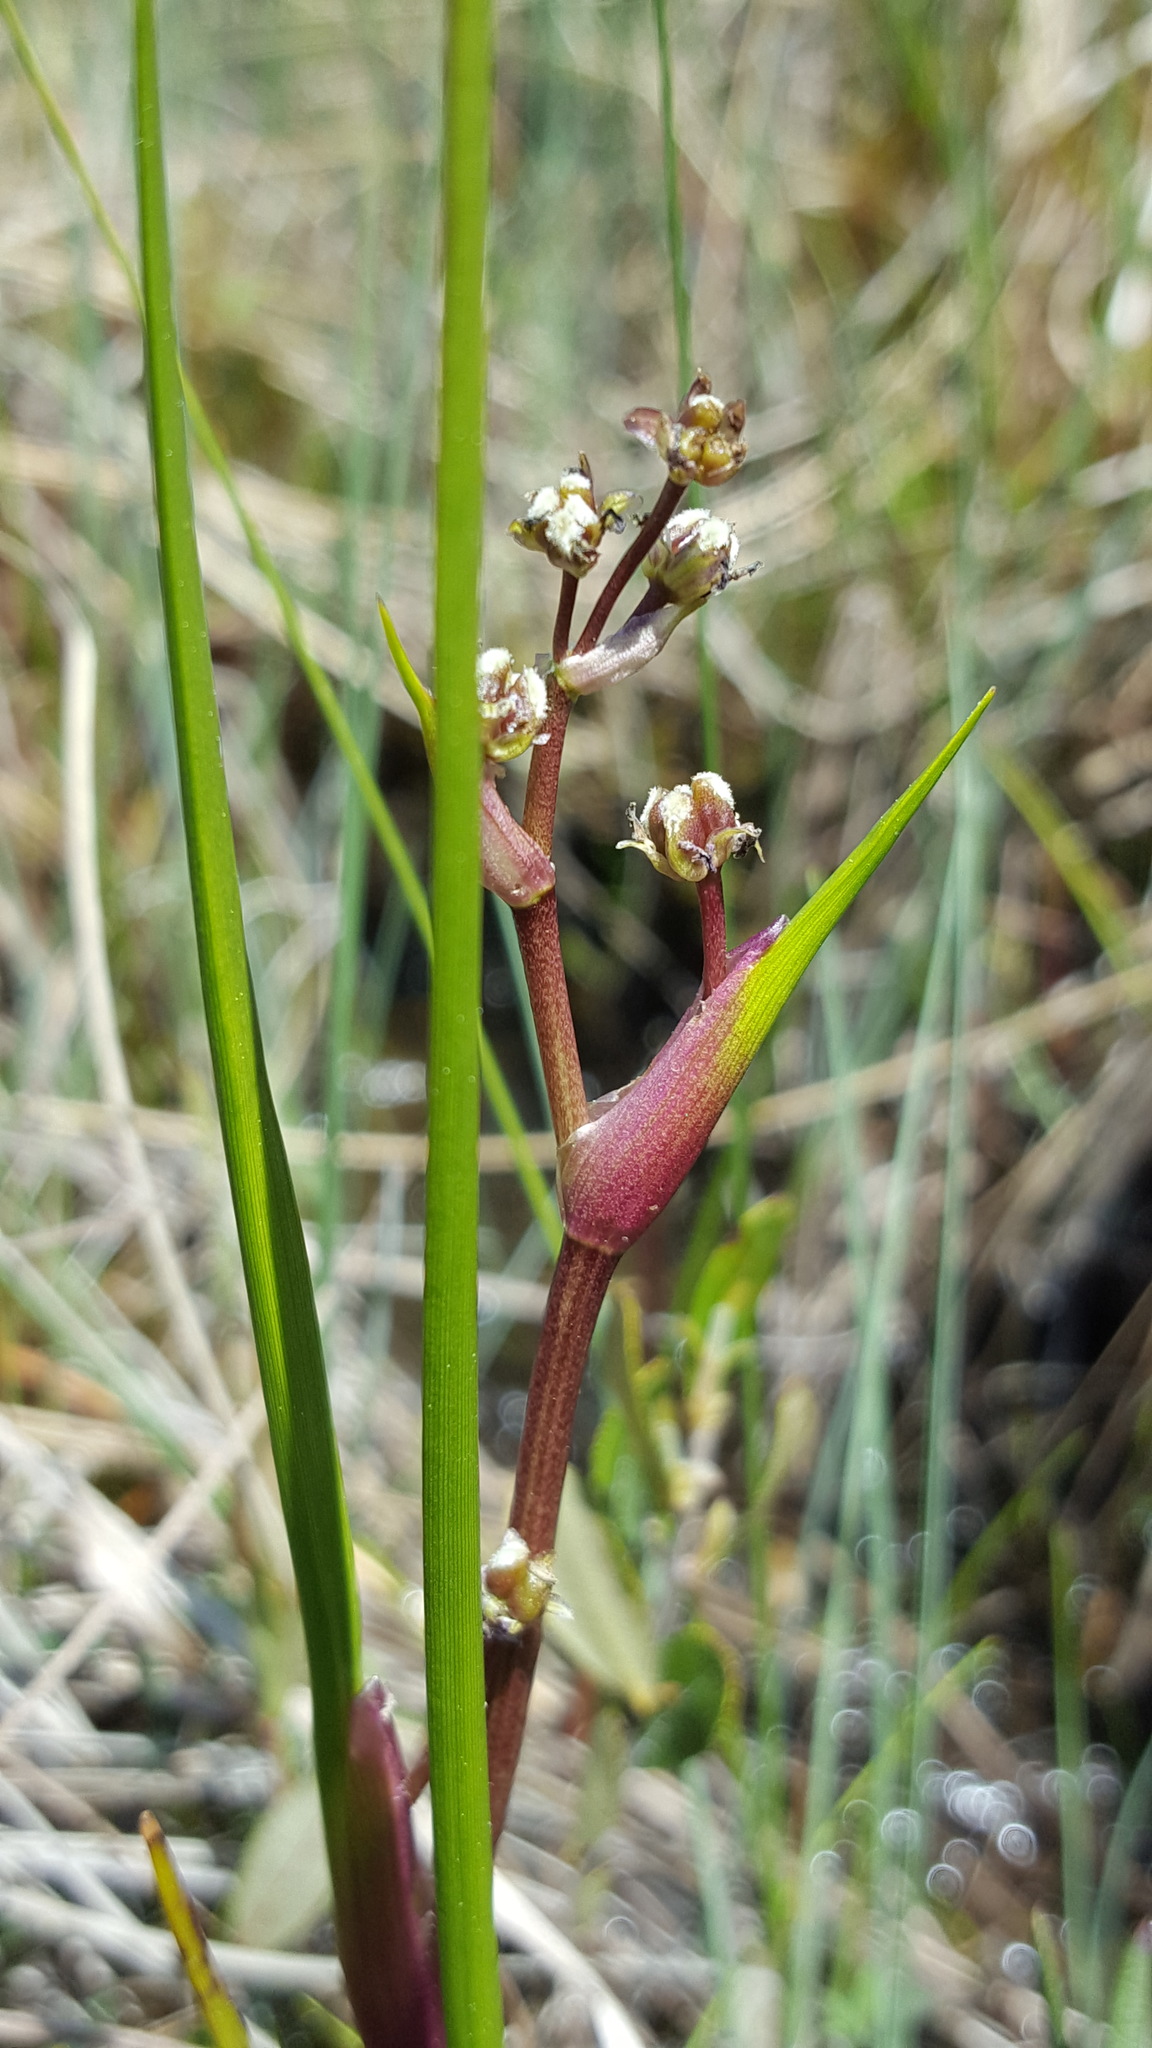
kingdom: Plantae
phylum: Tracheophyta
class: Liliopsida
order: Alismatales
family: Scheuchzeriaceae
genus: Scheuchzeria
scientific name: Scheuchzeria palustris
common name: Rannoch-rush
